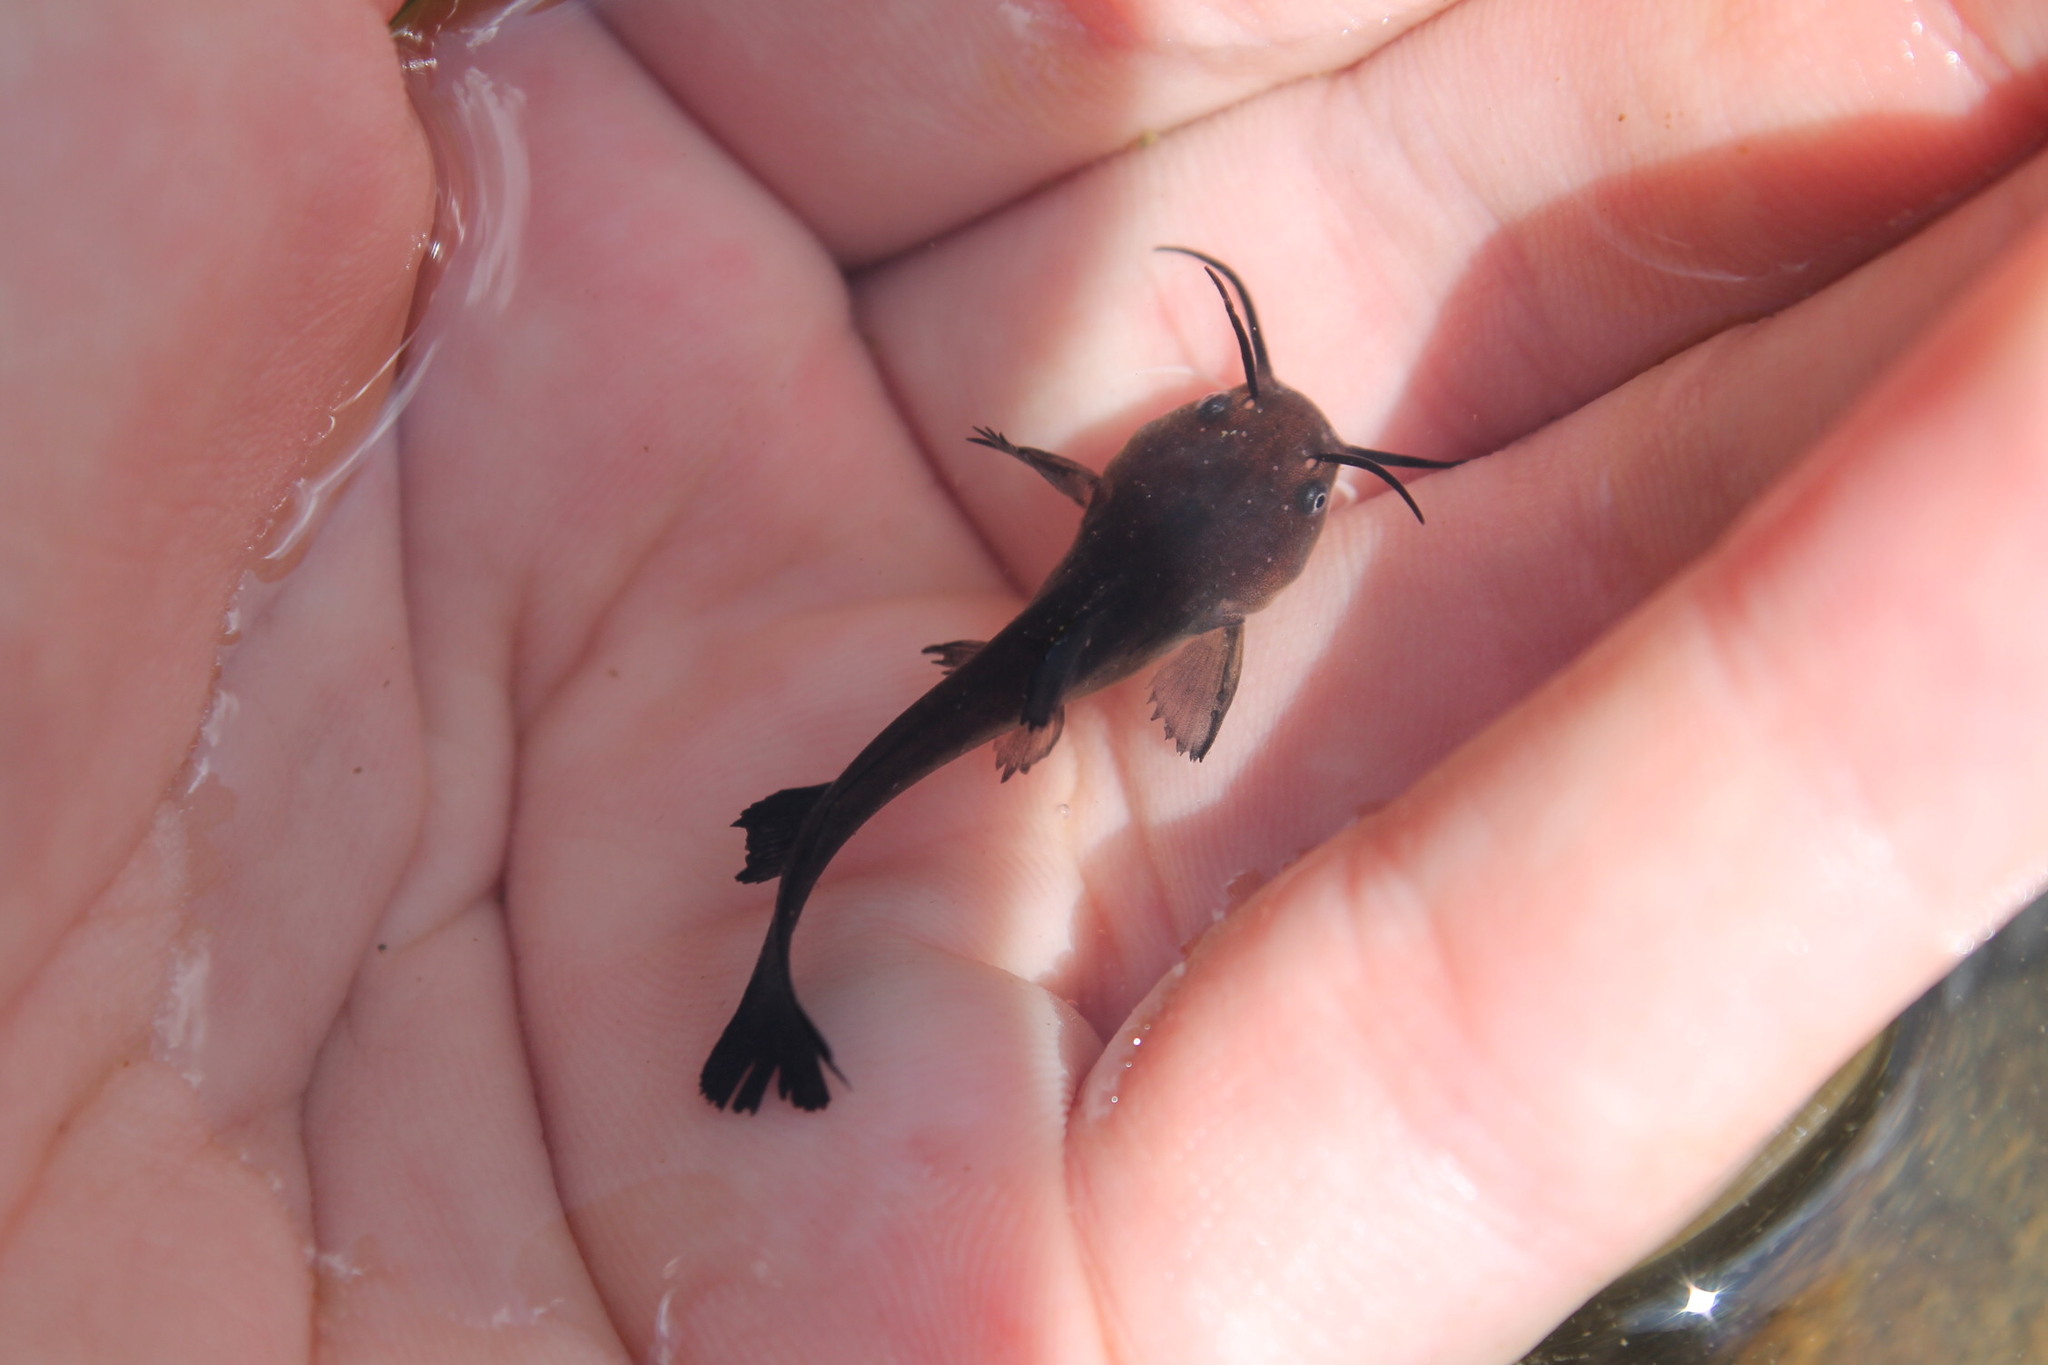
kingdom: Animalia
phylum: Chordata
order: Siluriformes
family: Ictaluridae
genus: Ameiurus
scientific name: Ameiurus natalis
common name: Yellow bullhead
